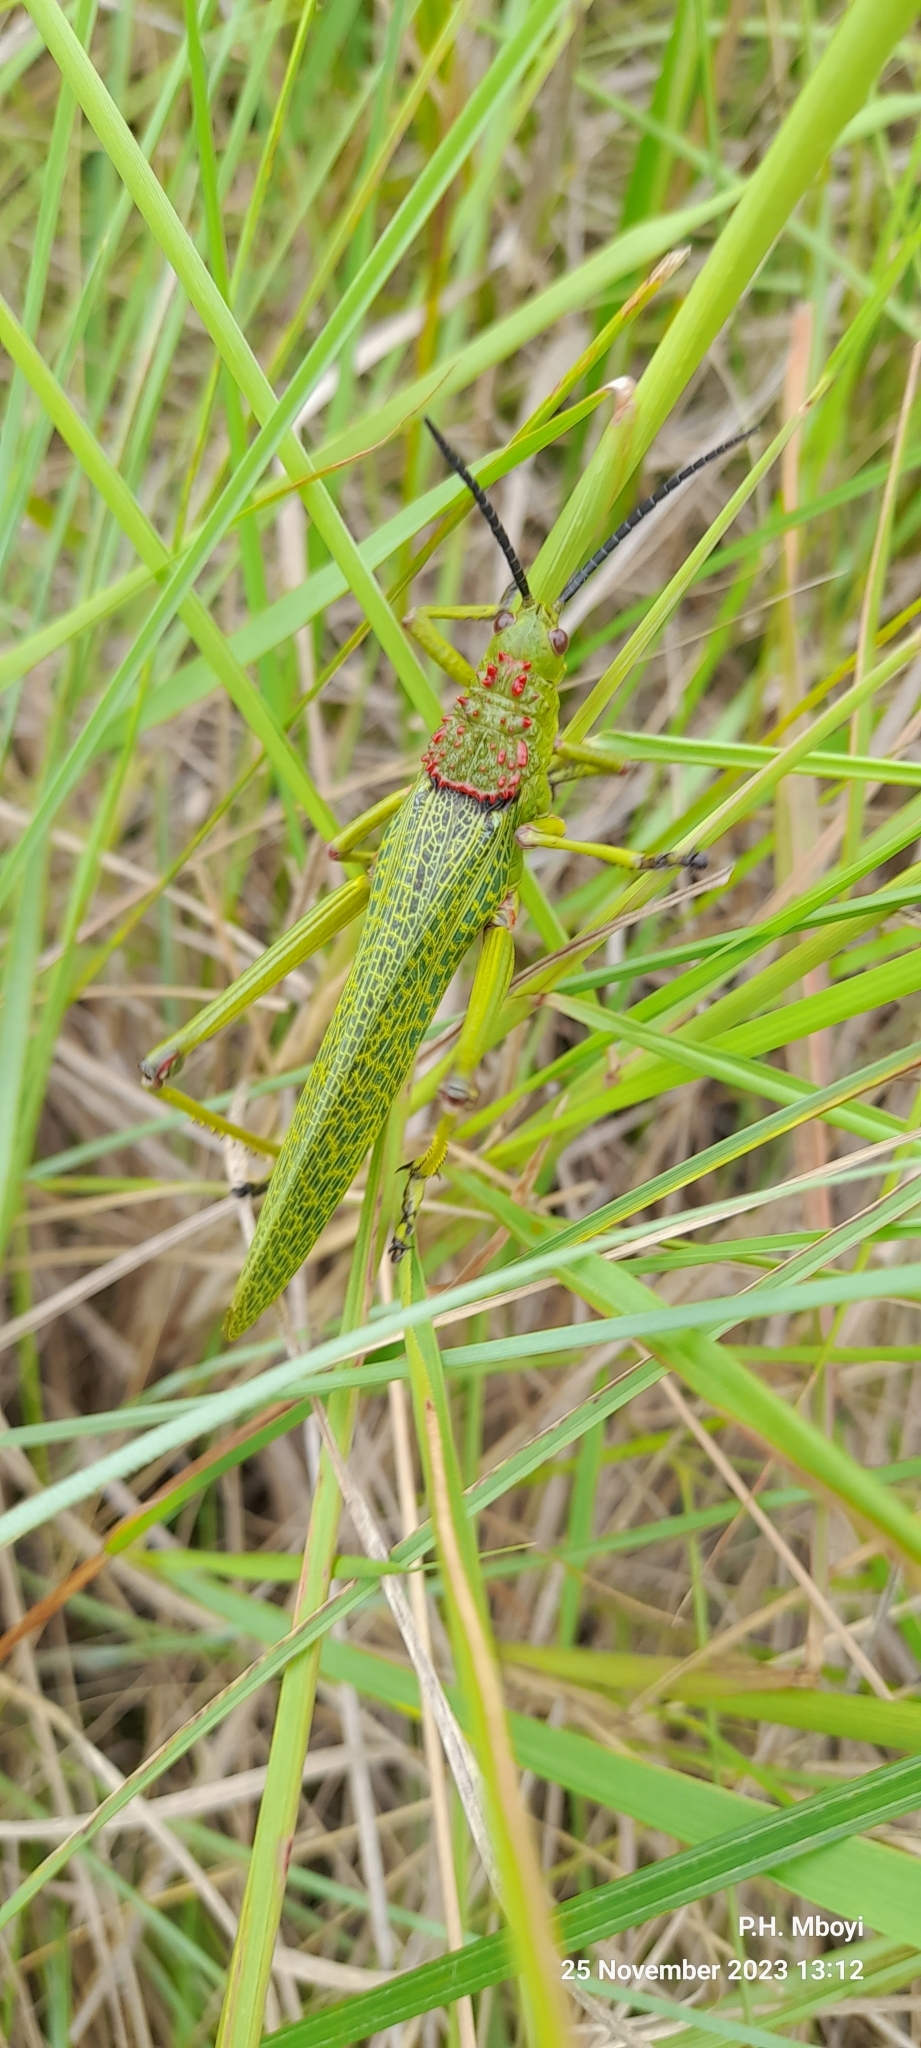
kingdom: Animalia
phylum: Arthropoda
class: Insecta
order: Orthoptera
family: Pyrgomorphidae
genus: Phymateus
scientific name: Phymateus viridipes
